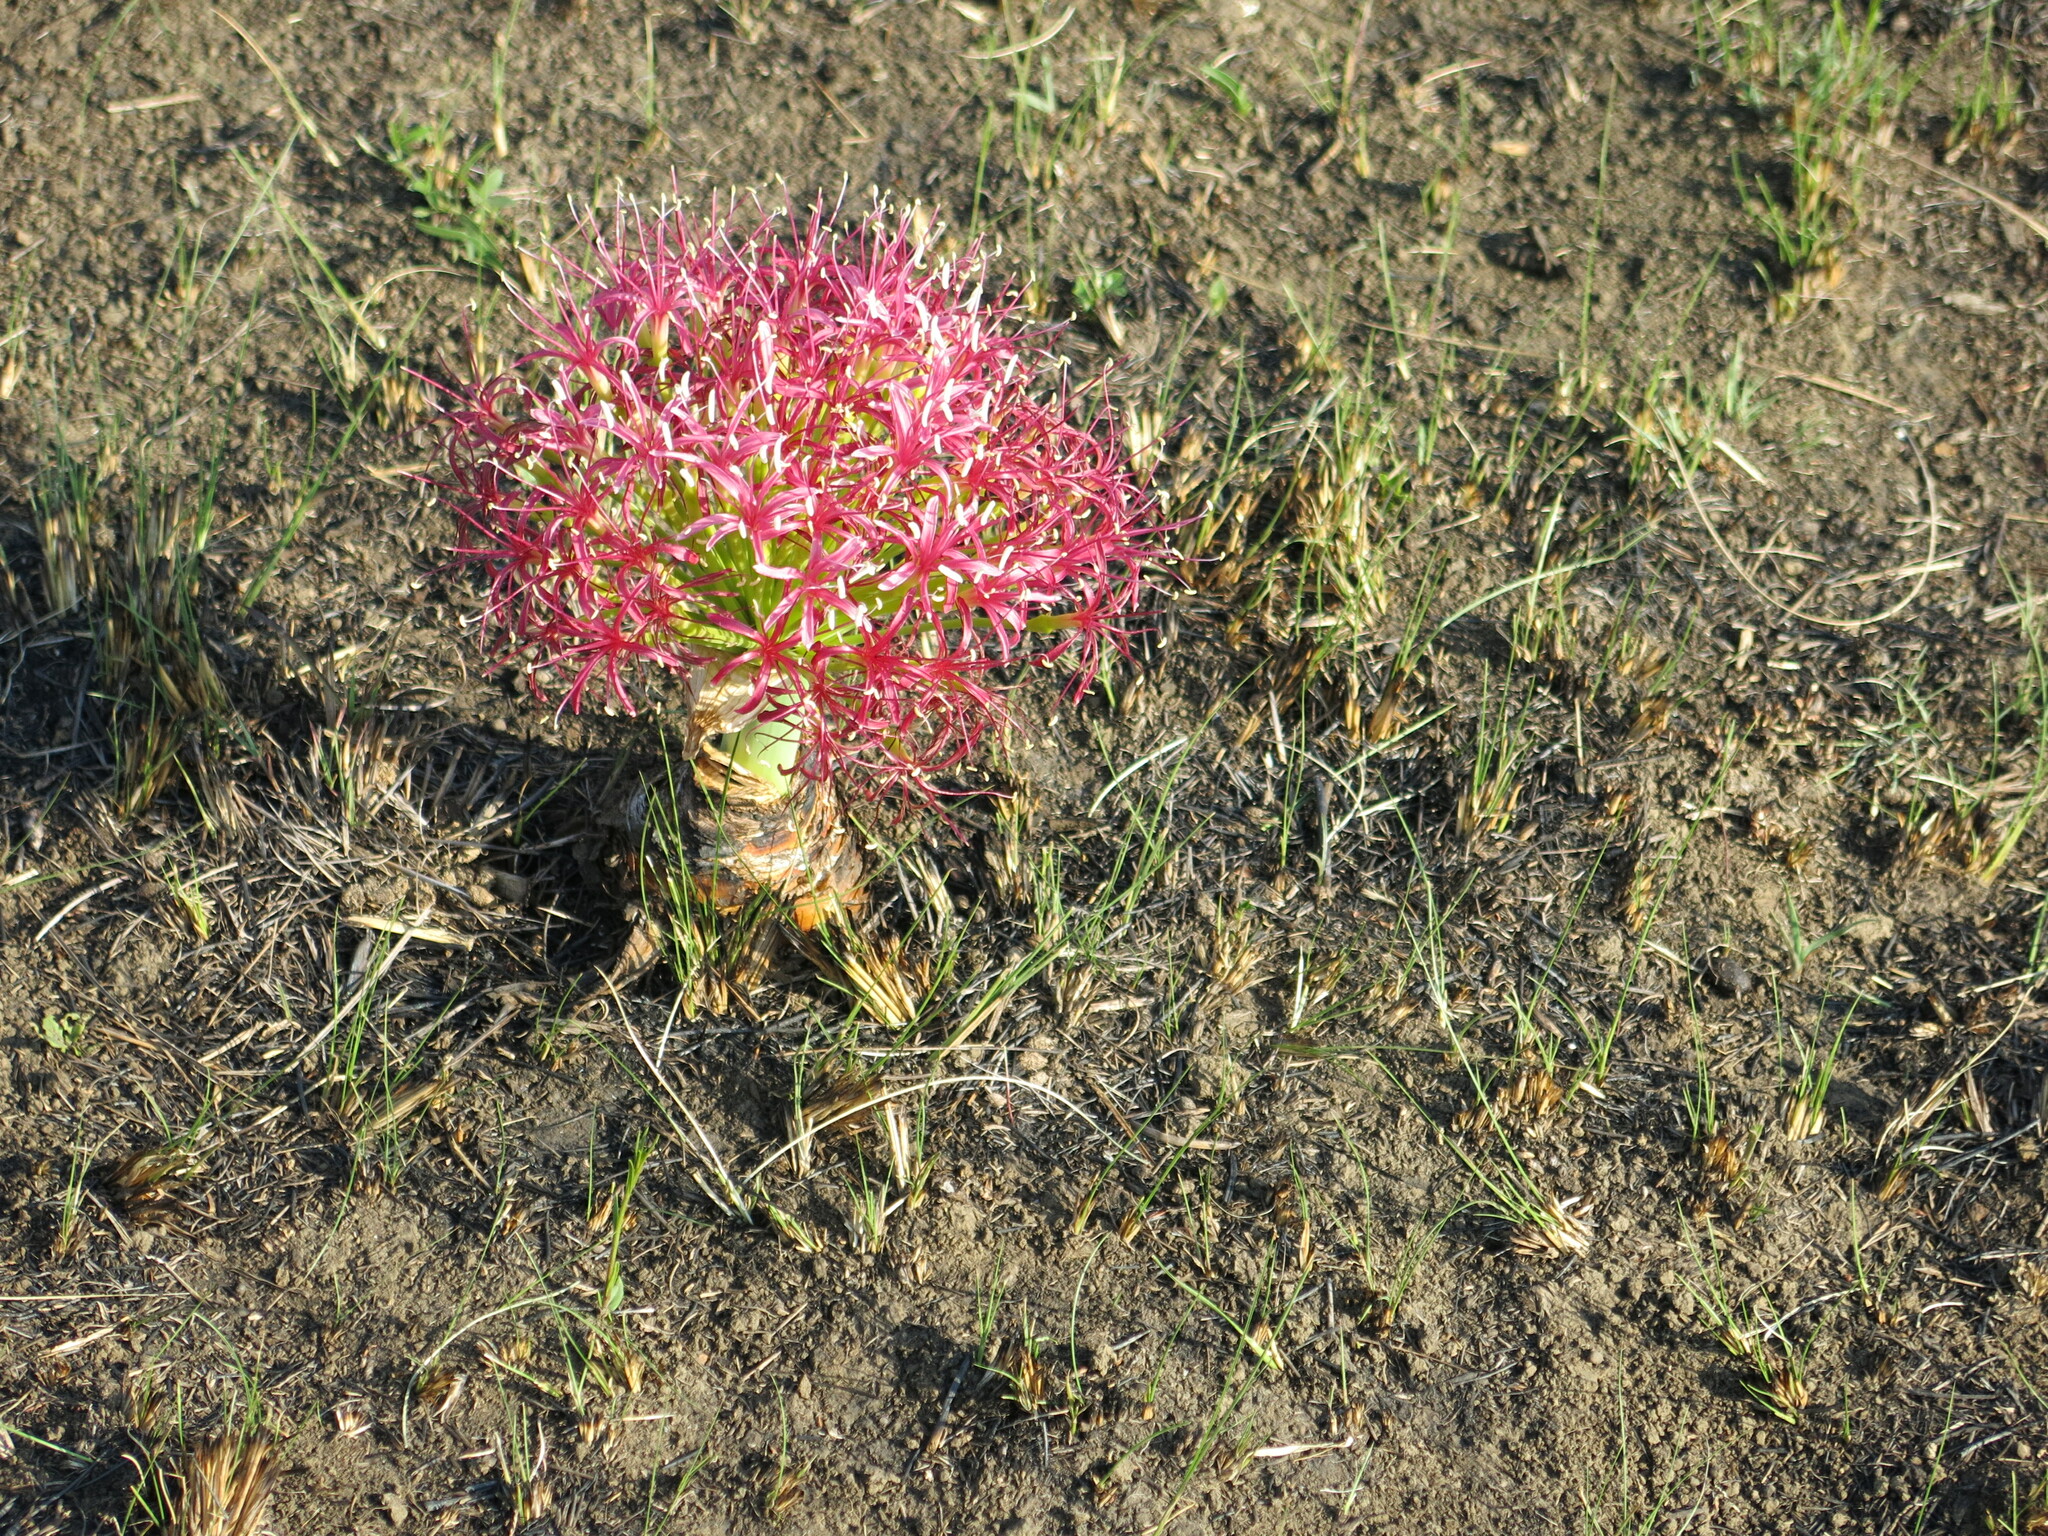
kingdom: Plantae
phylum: Tracheophyta
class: Liliopsida
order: Asparagales
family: Amaryllidaceae
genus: Boophone
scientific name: Boophone disticha
